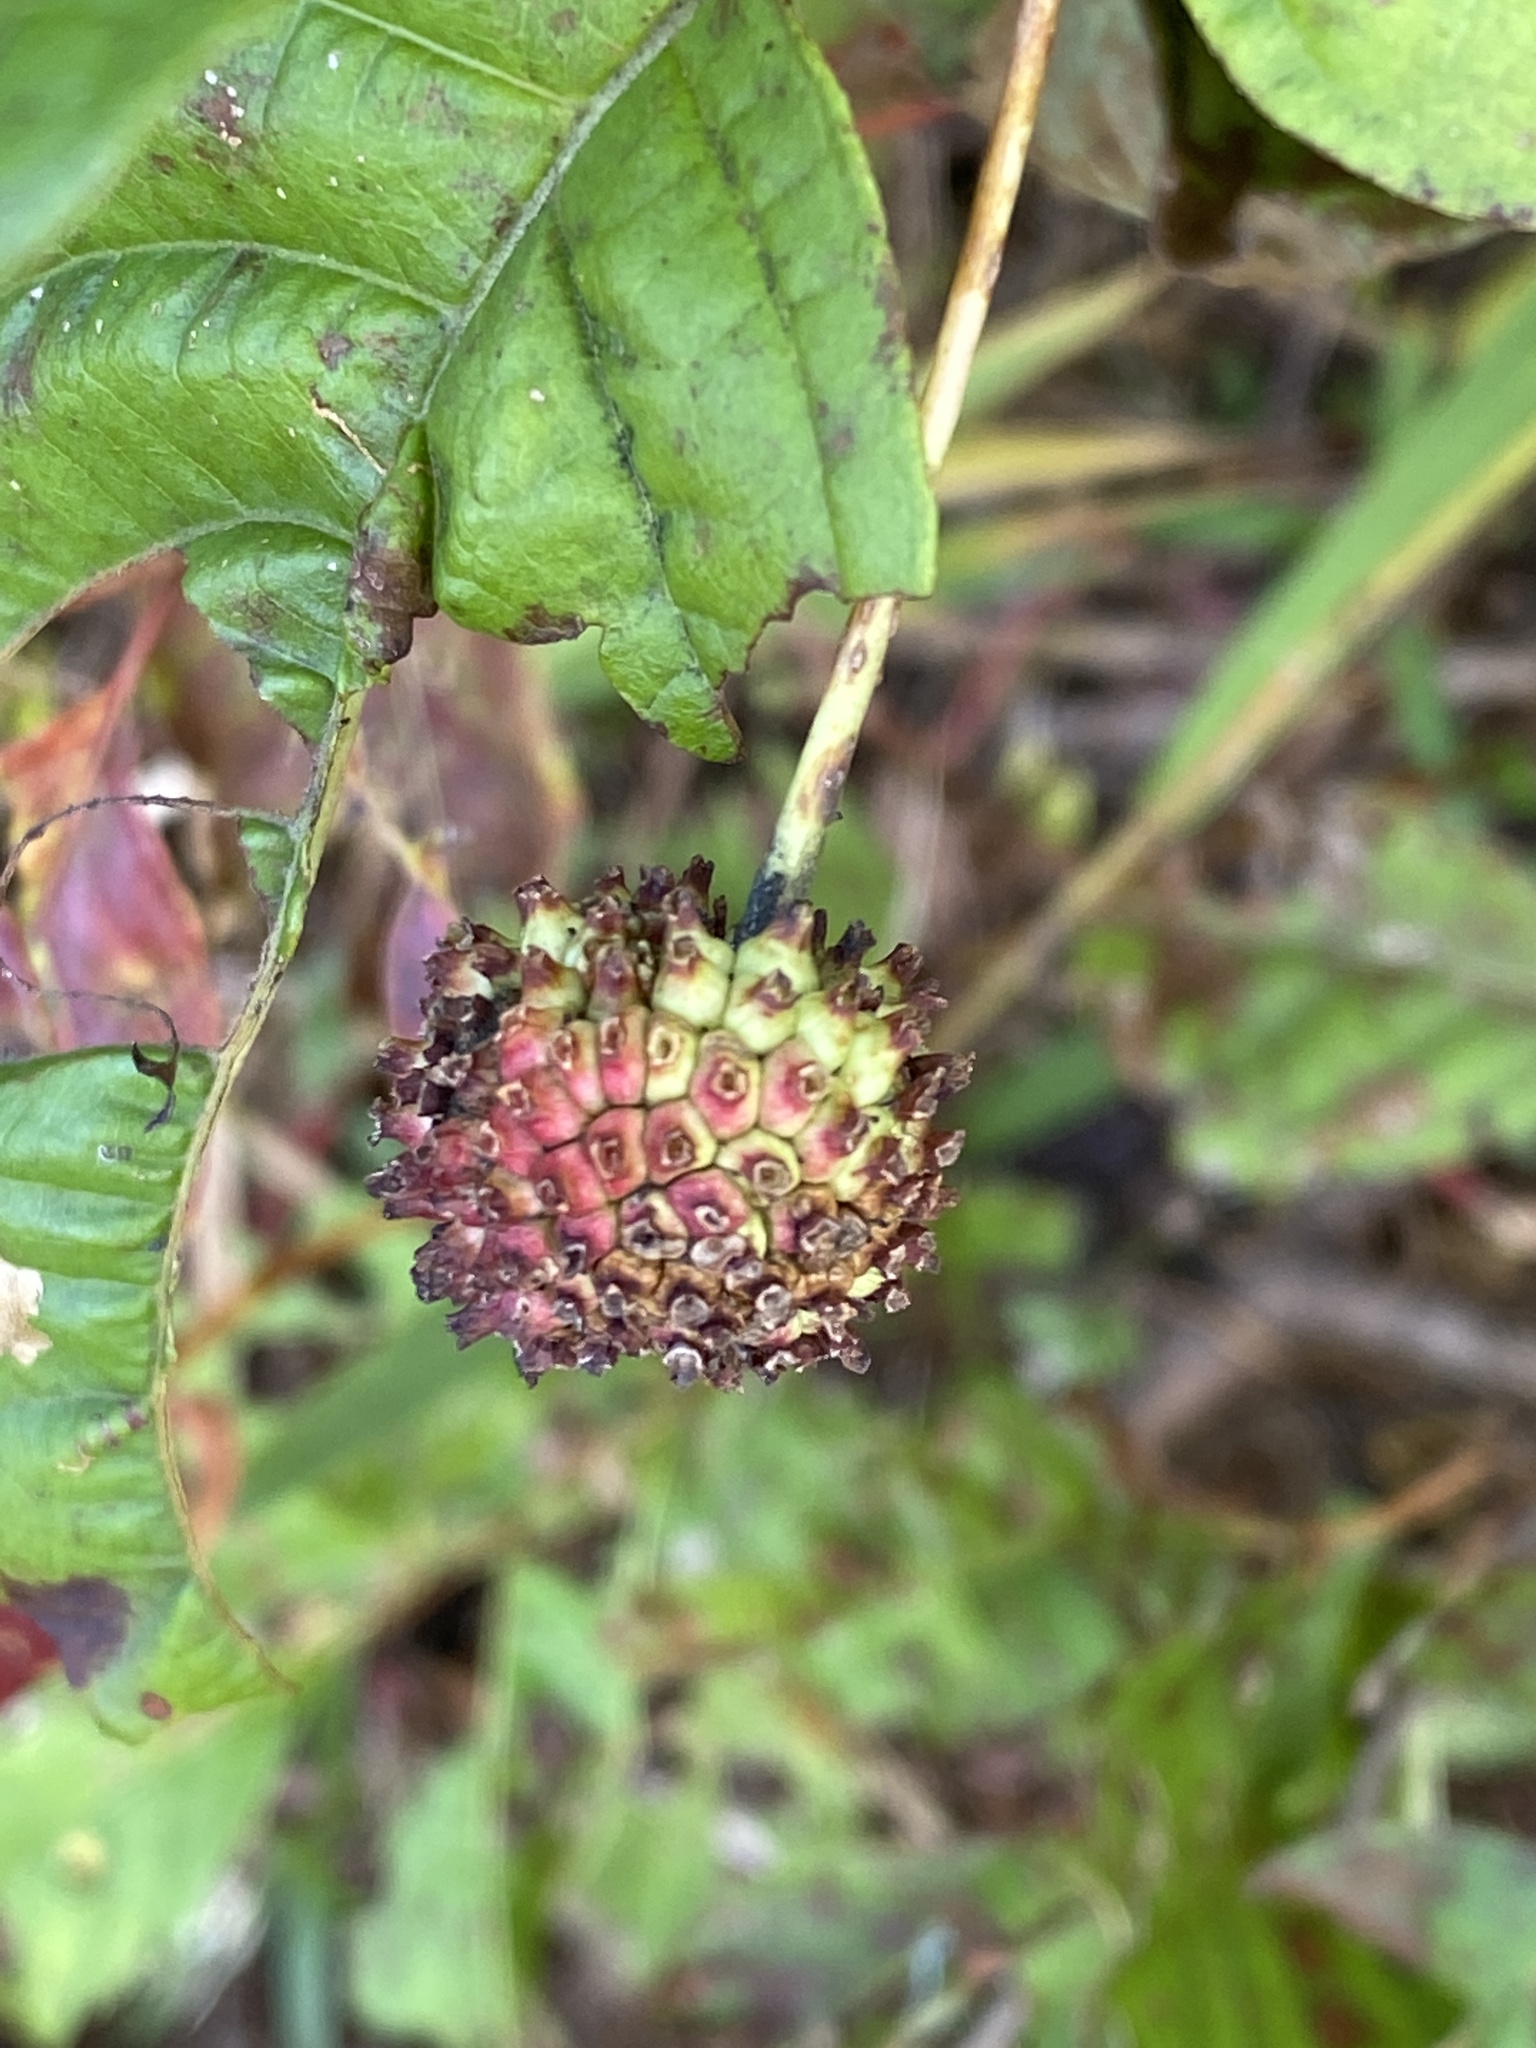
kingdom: Plantae
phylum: Tracheophyta
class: Magnoliopsida
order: Gentianales
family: Rubiaceae
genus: Cephalanthus
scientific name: Cephalanthus occidentalis
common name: Button-willow
